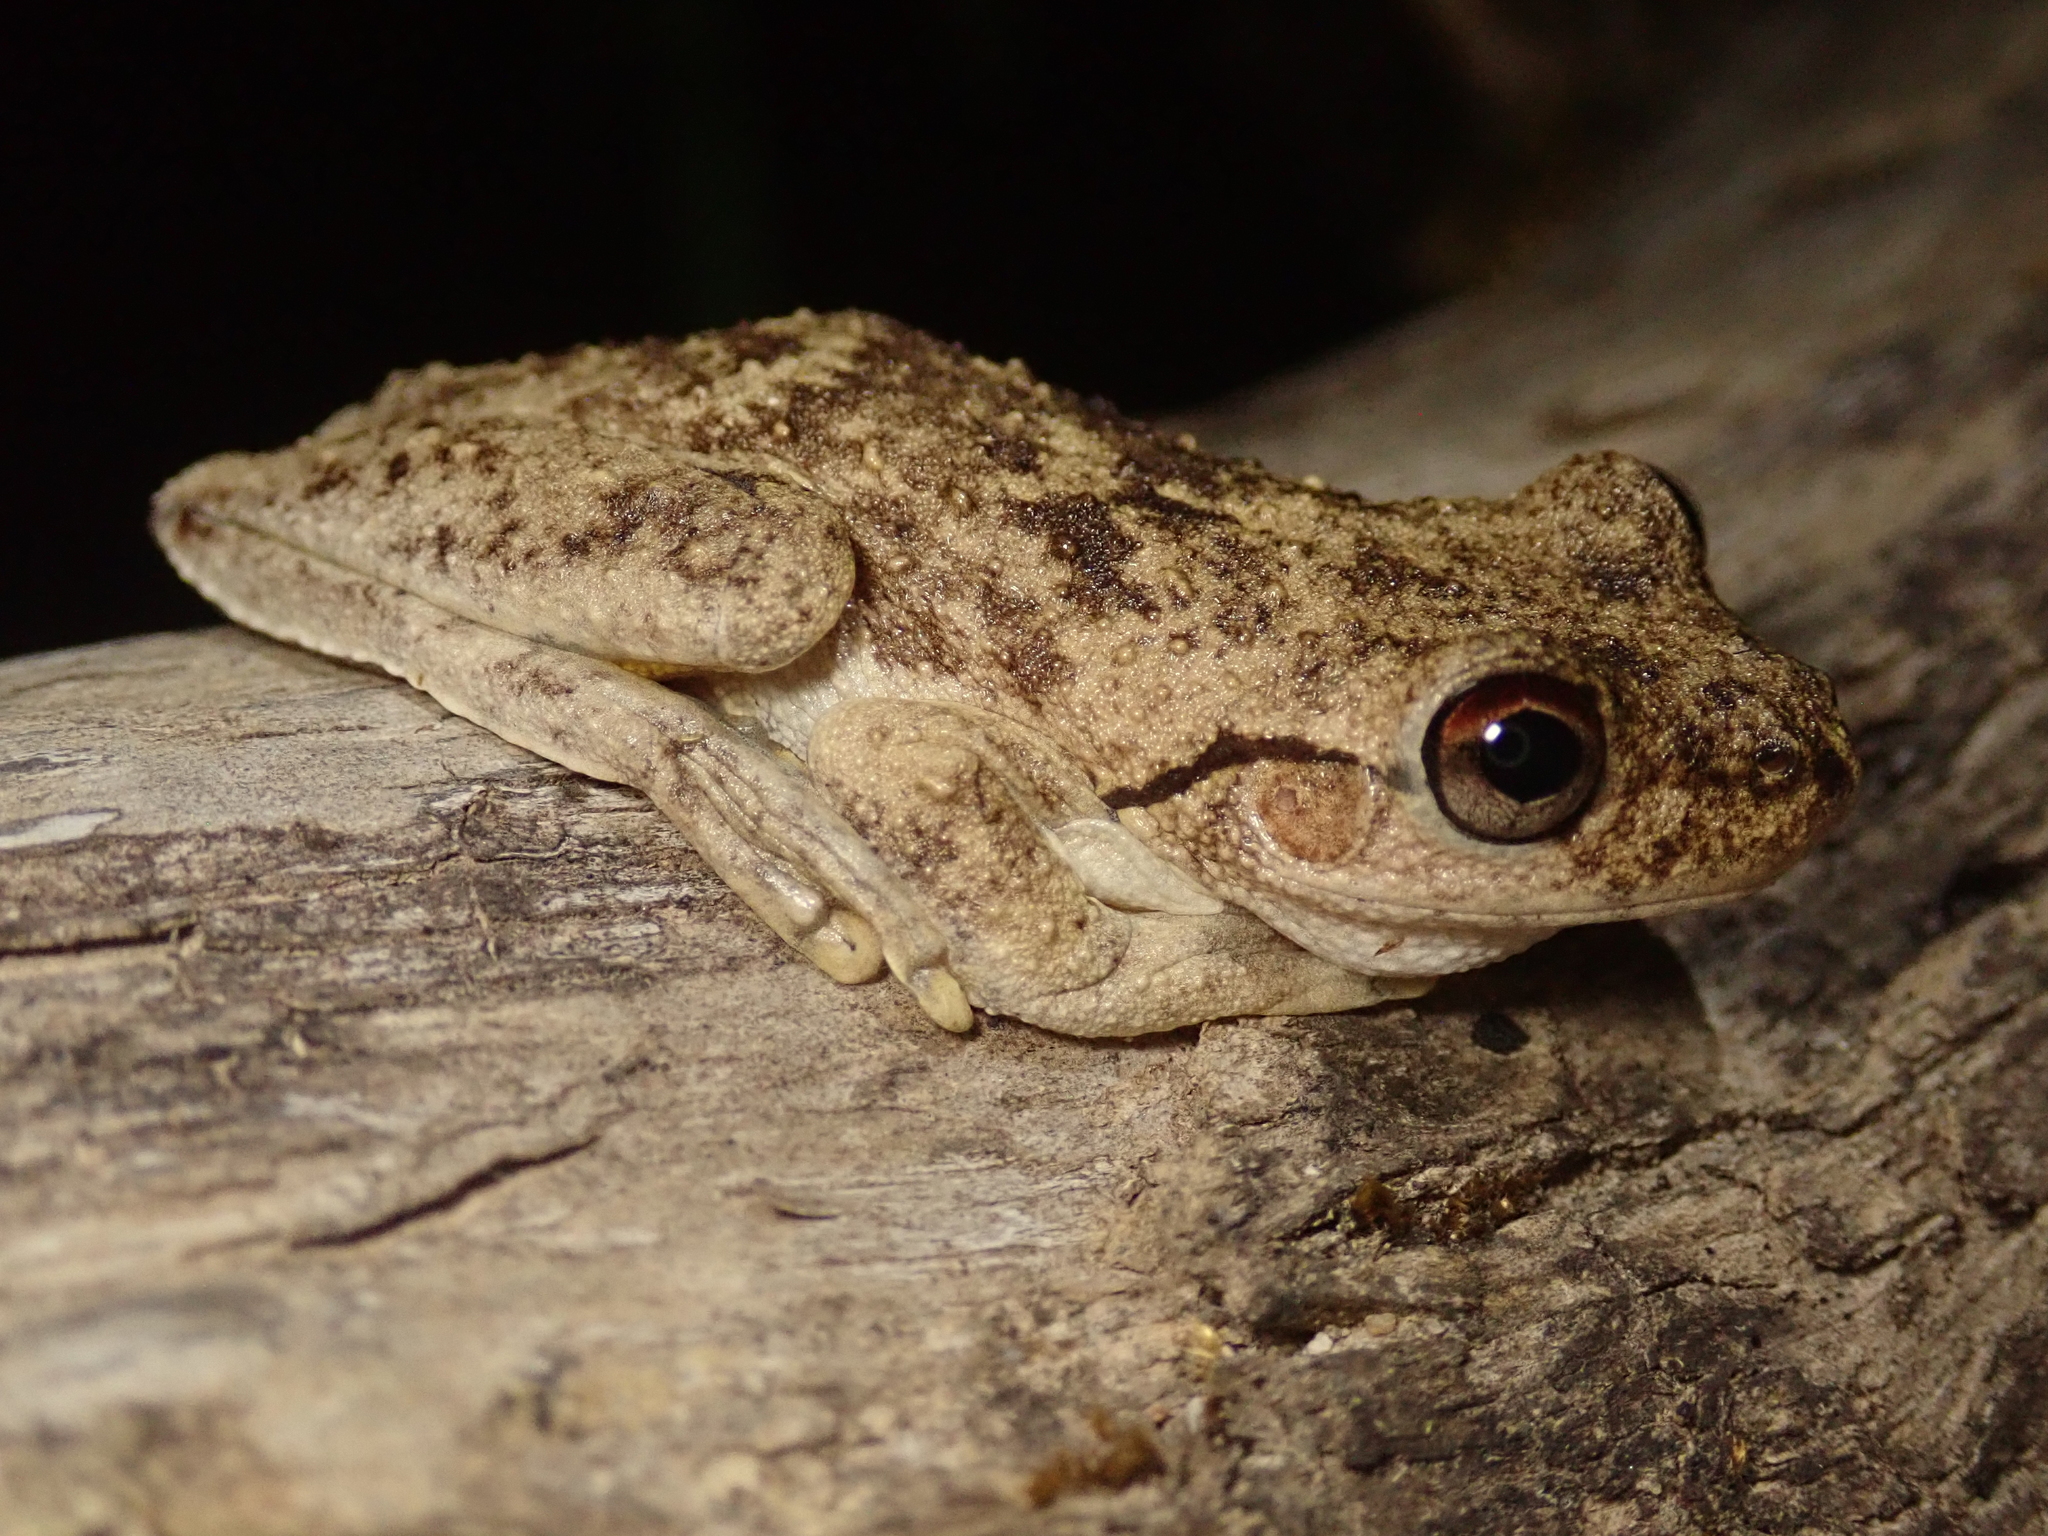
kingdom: Animalia
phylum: Chordata
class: Amphibia
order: Anura
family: Pelodryadidae
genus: Litoria
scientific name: Litoria rothii
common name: Roth’s tree frog
